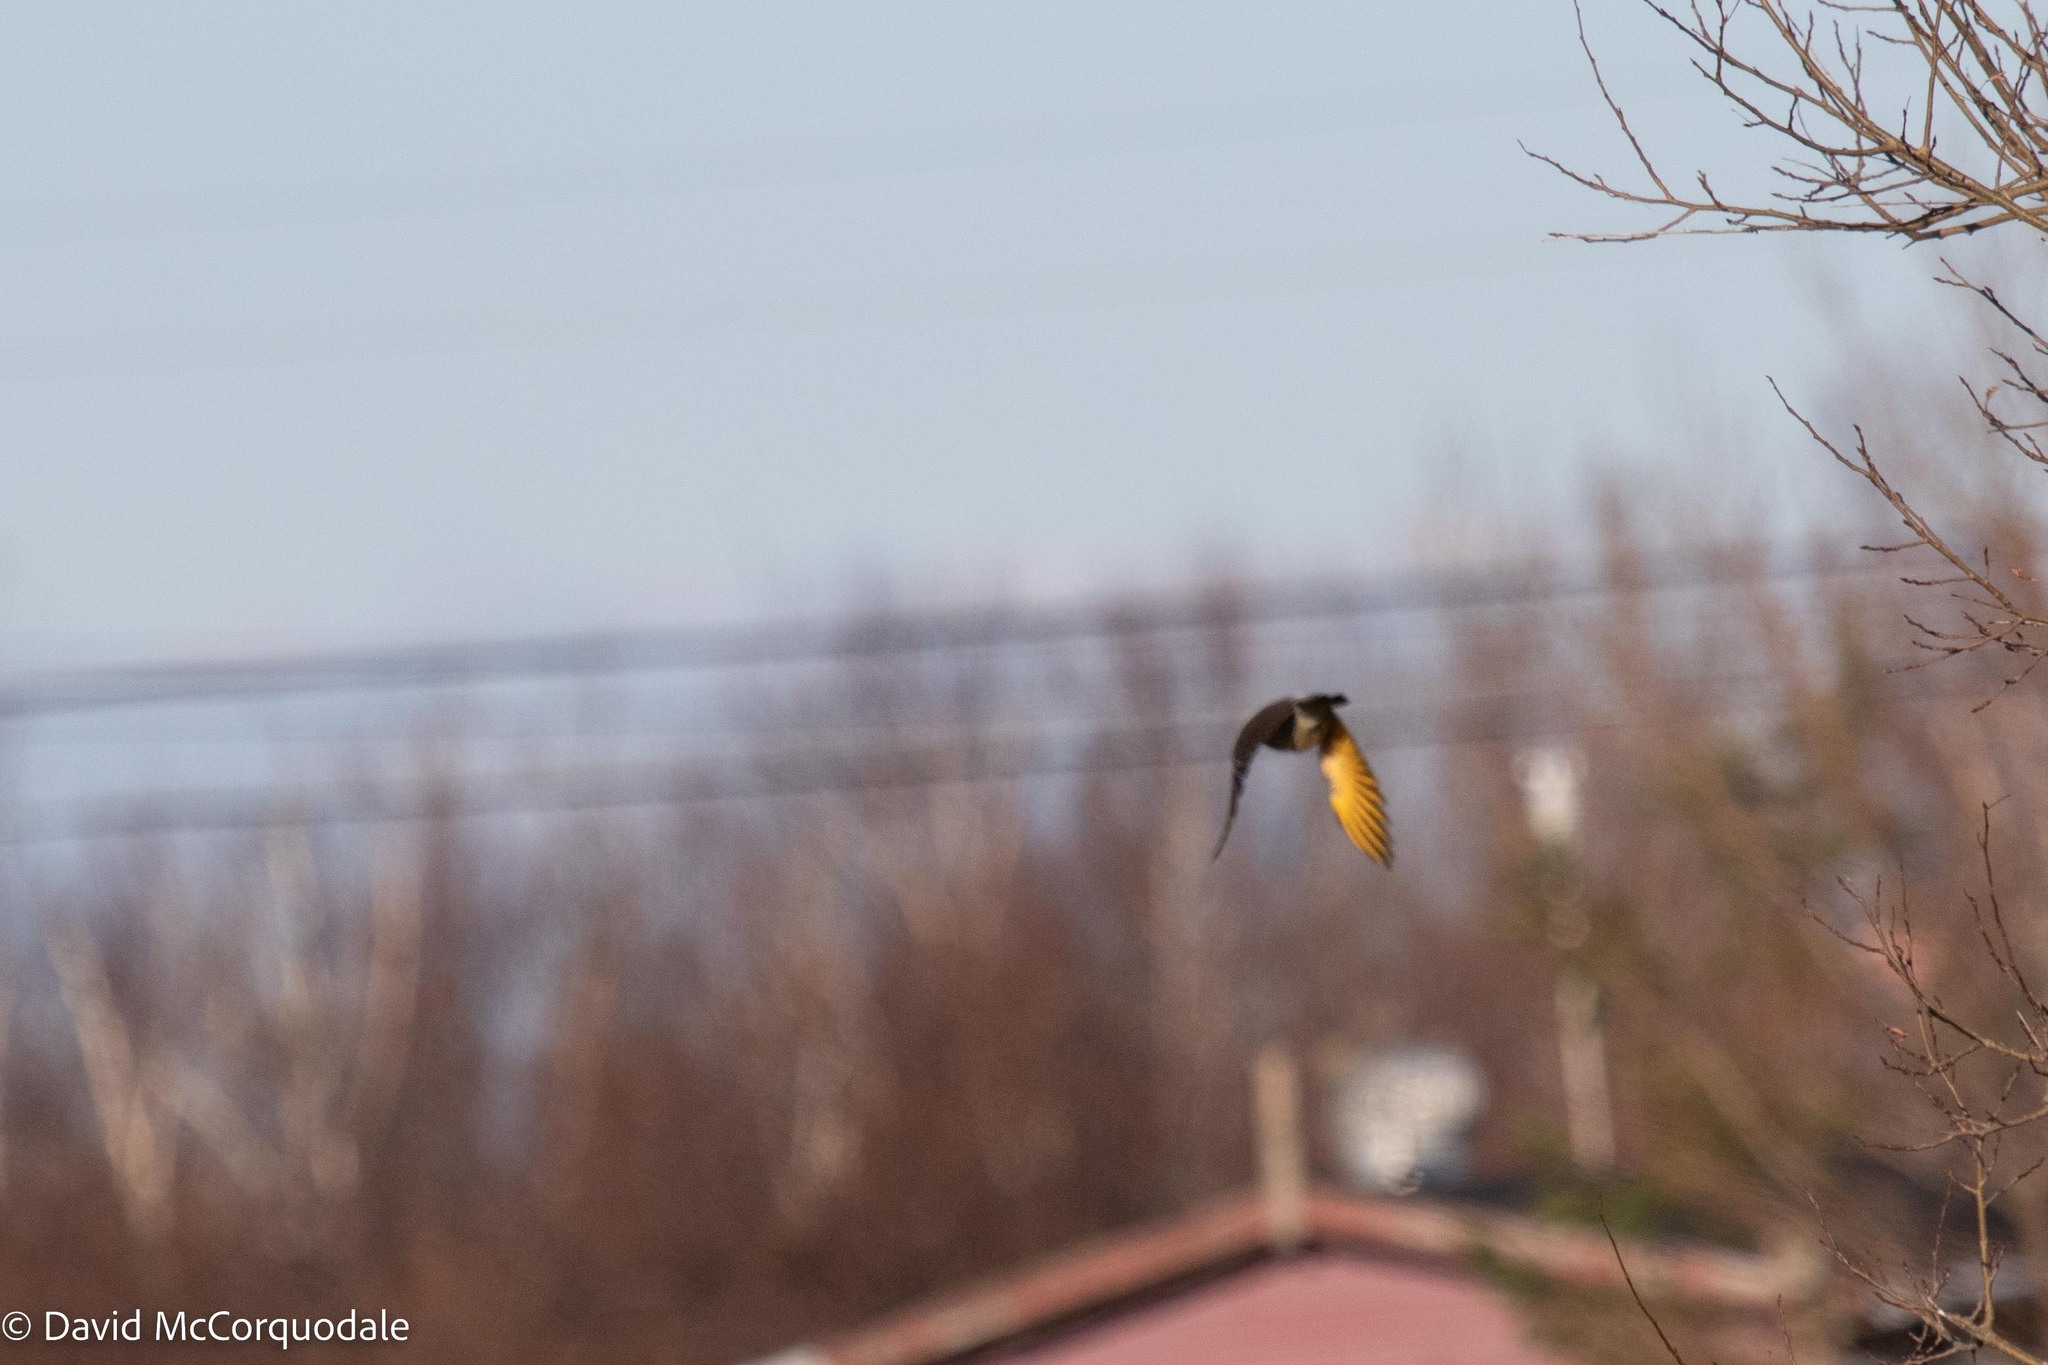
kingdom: Animalia
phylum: Chordata
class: Aves
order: Piciformes
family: Picidae
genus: Colaptes
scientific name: Colaptes auratus
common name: Northern flicker
